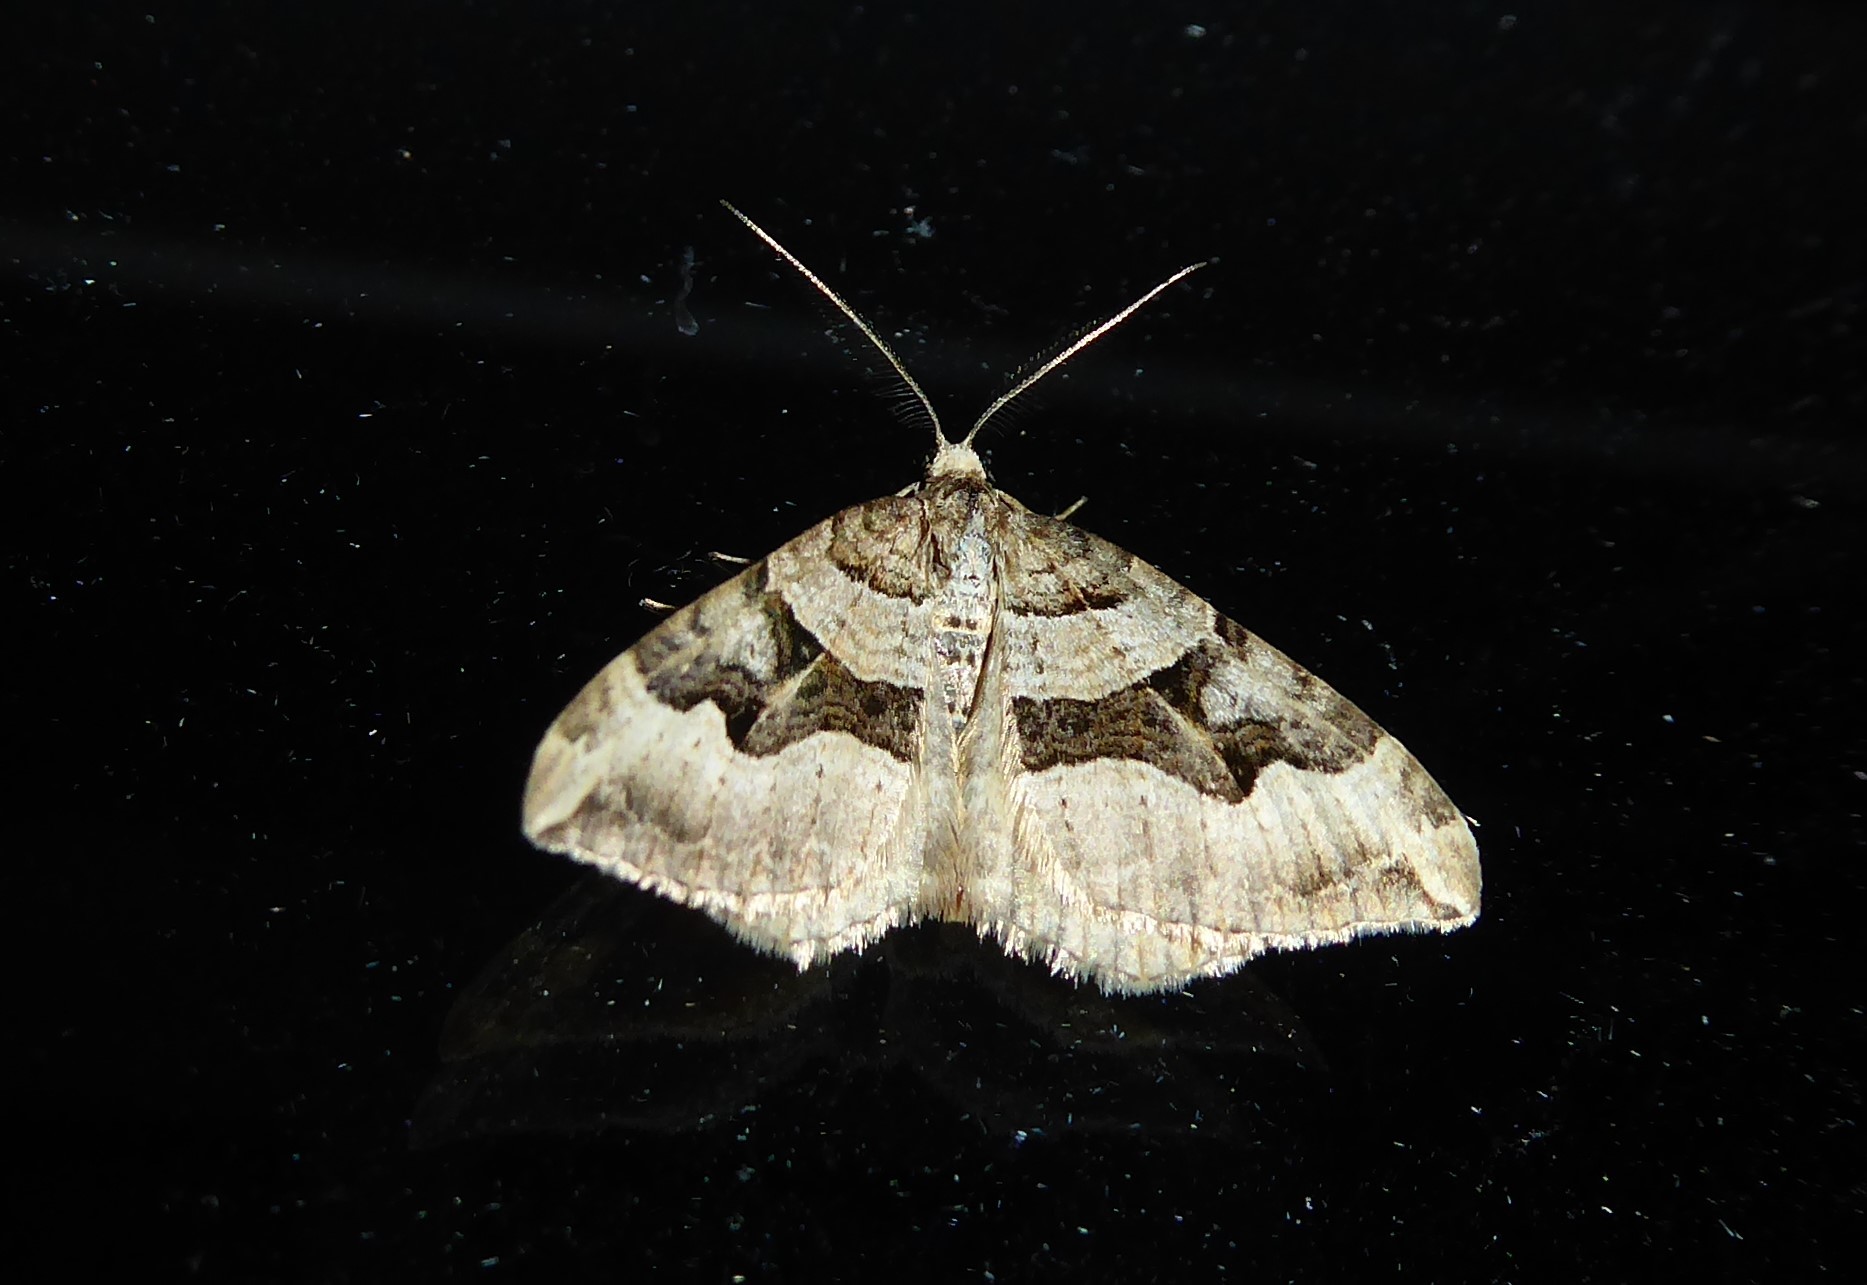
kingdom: Animalia
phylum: Arthropoda
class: Insecta
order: Lepidoptera
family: Geometridae
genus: Xanthorhoe
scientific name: Xanthorhoe semifissata
